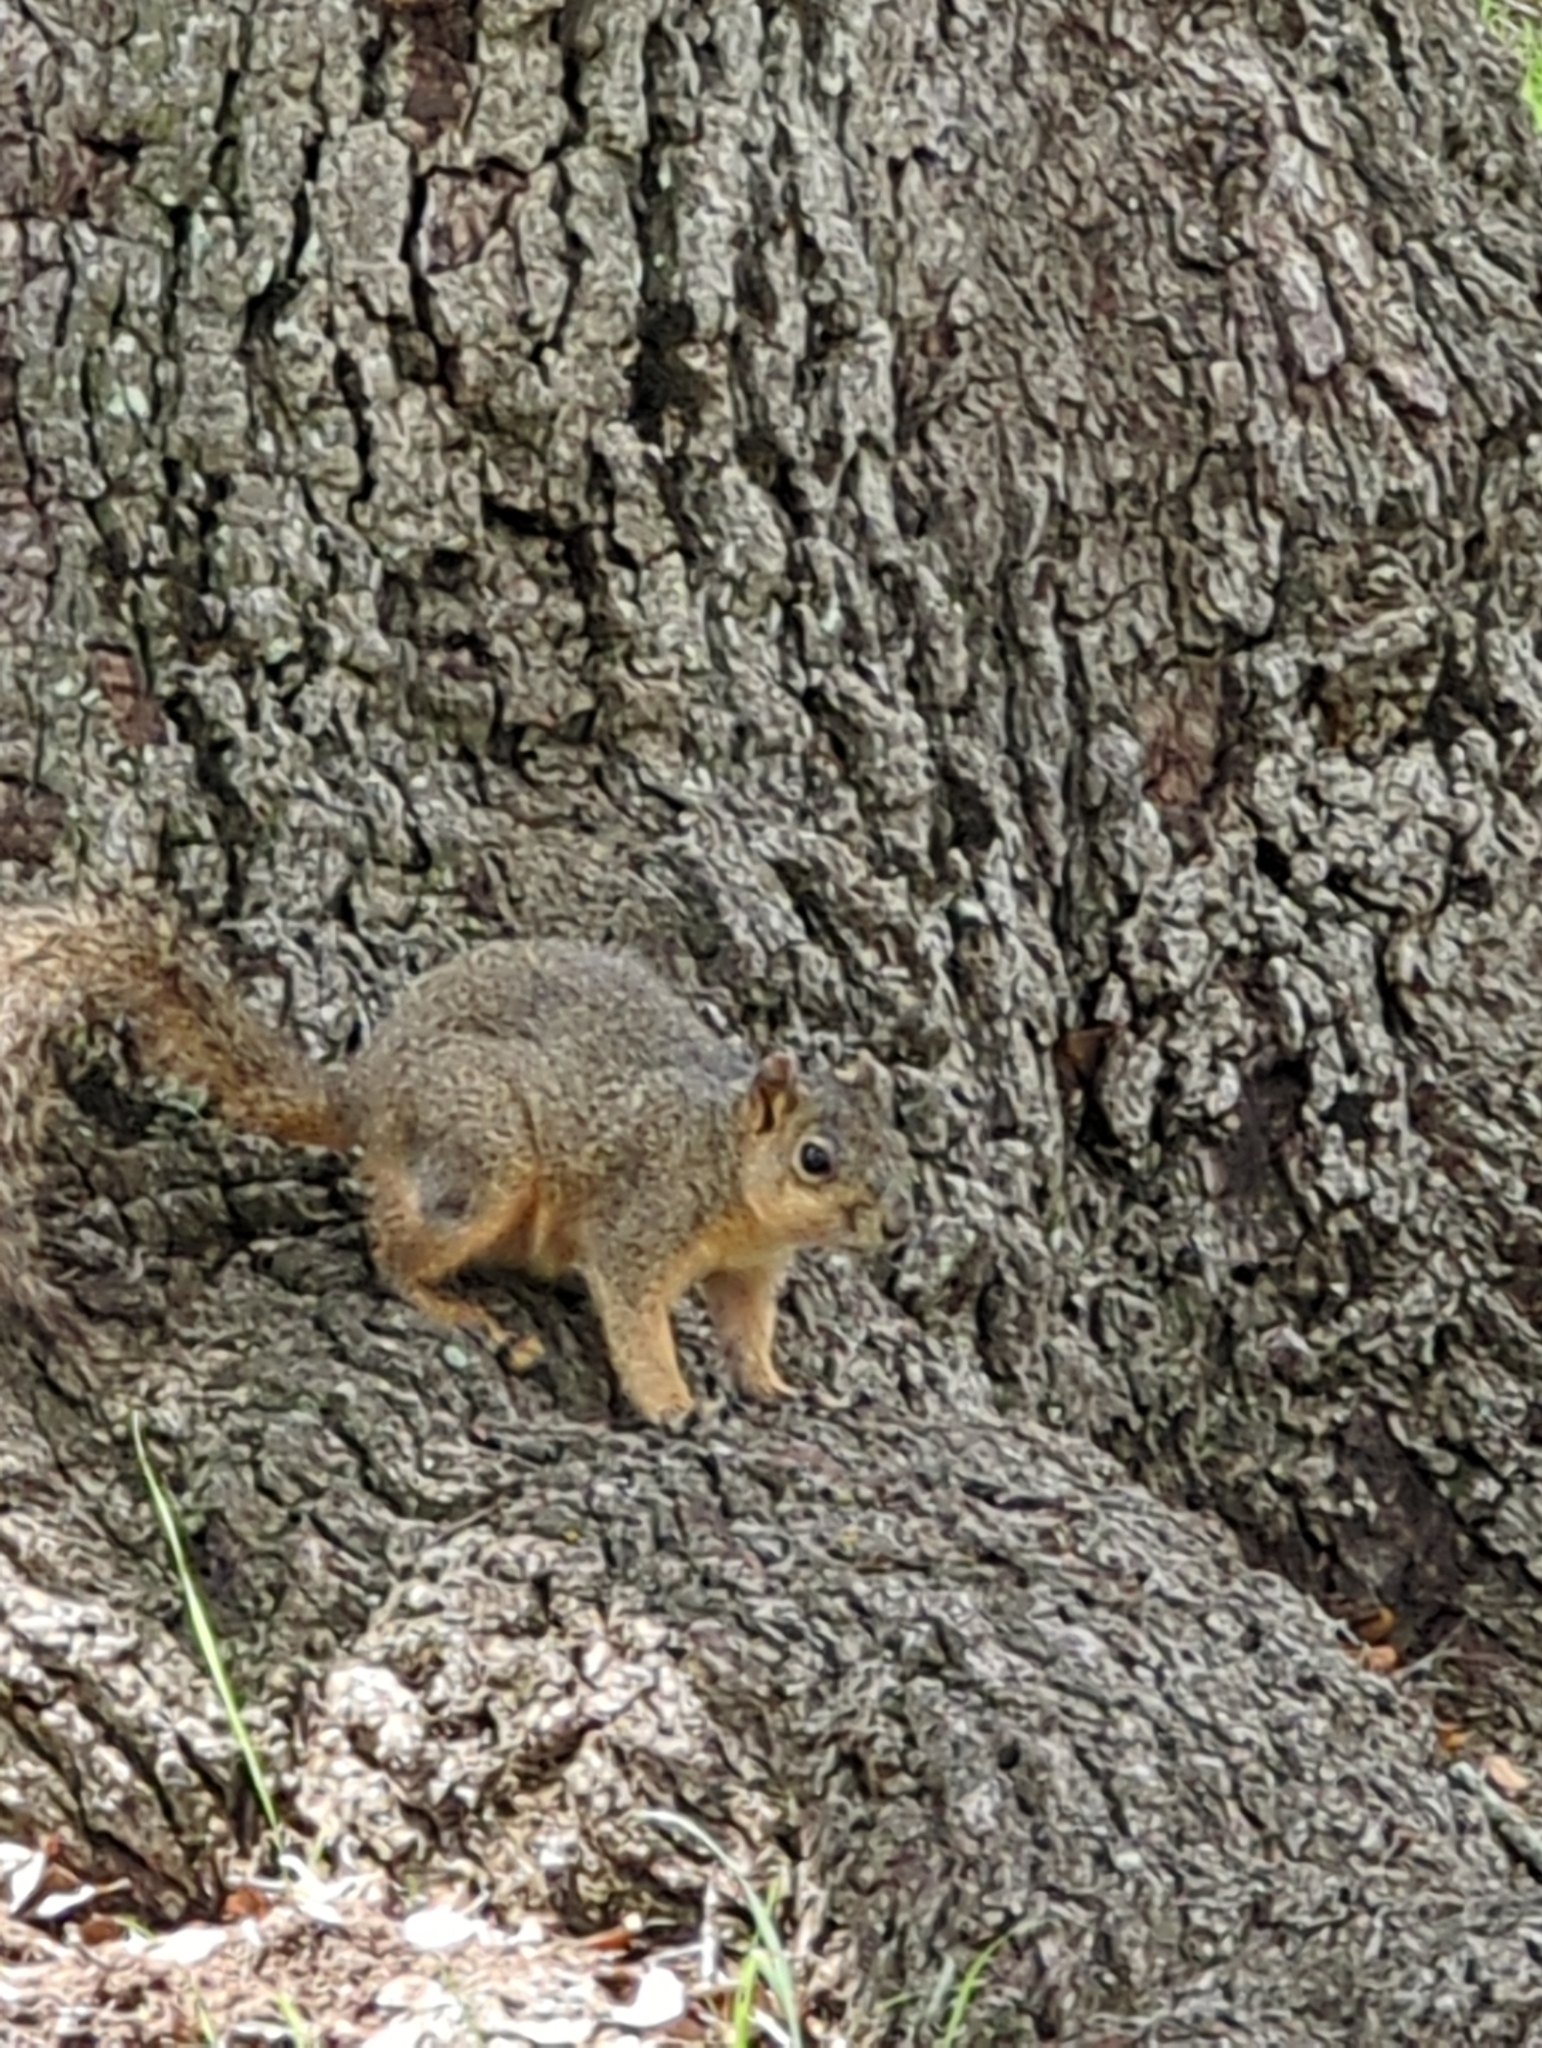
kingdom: Animalia
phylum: Chordata
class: Mammalia
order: Rodentia
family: Sciuridae
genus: Sciurus
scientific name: Sciurus niger
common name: Fox squirrel
